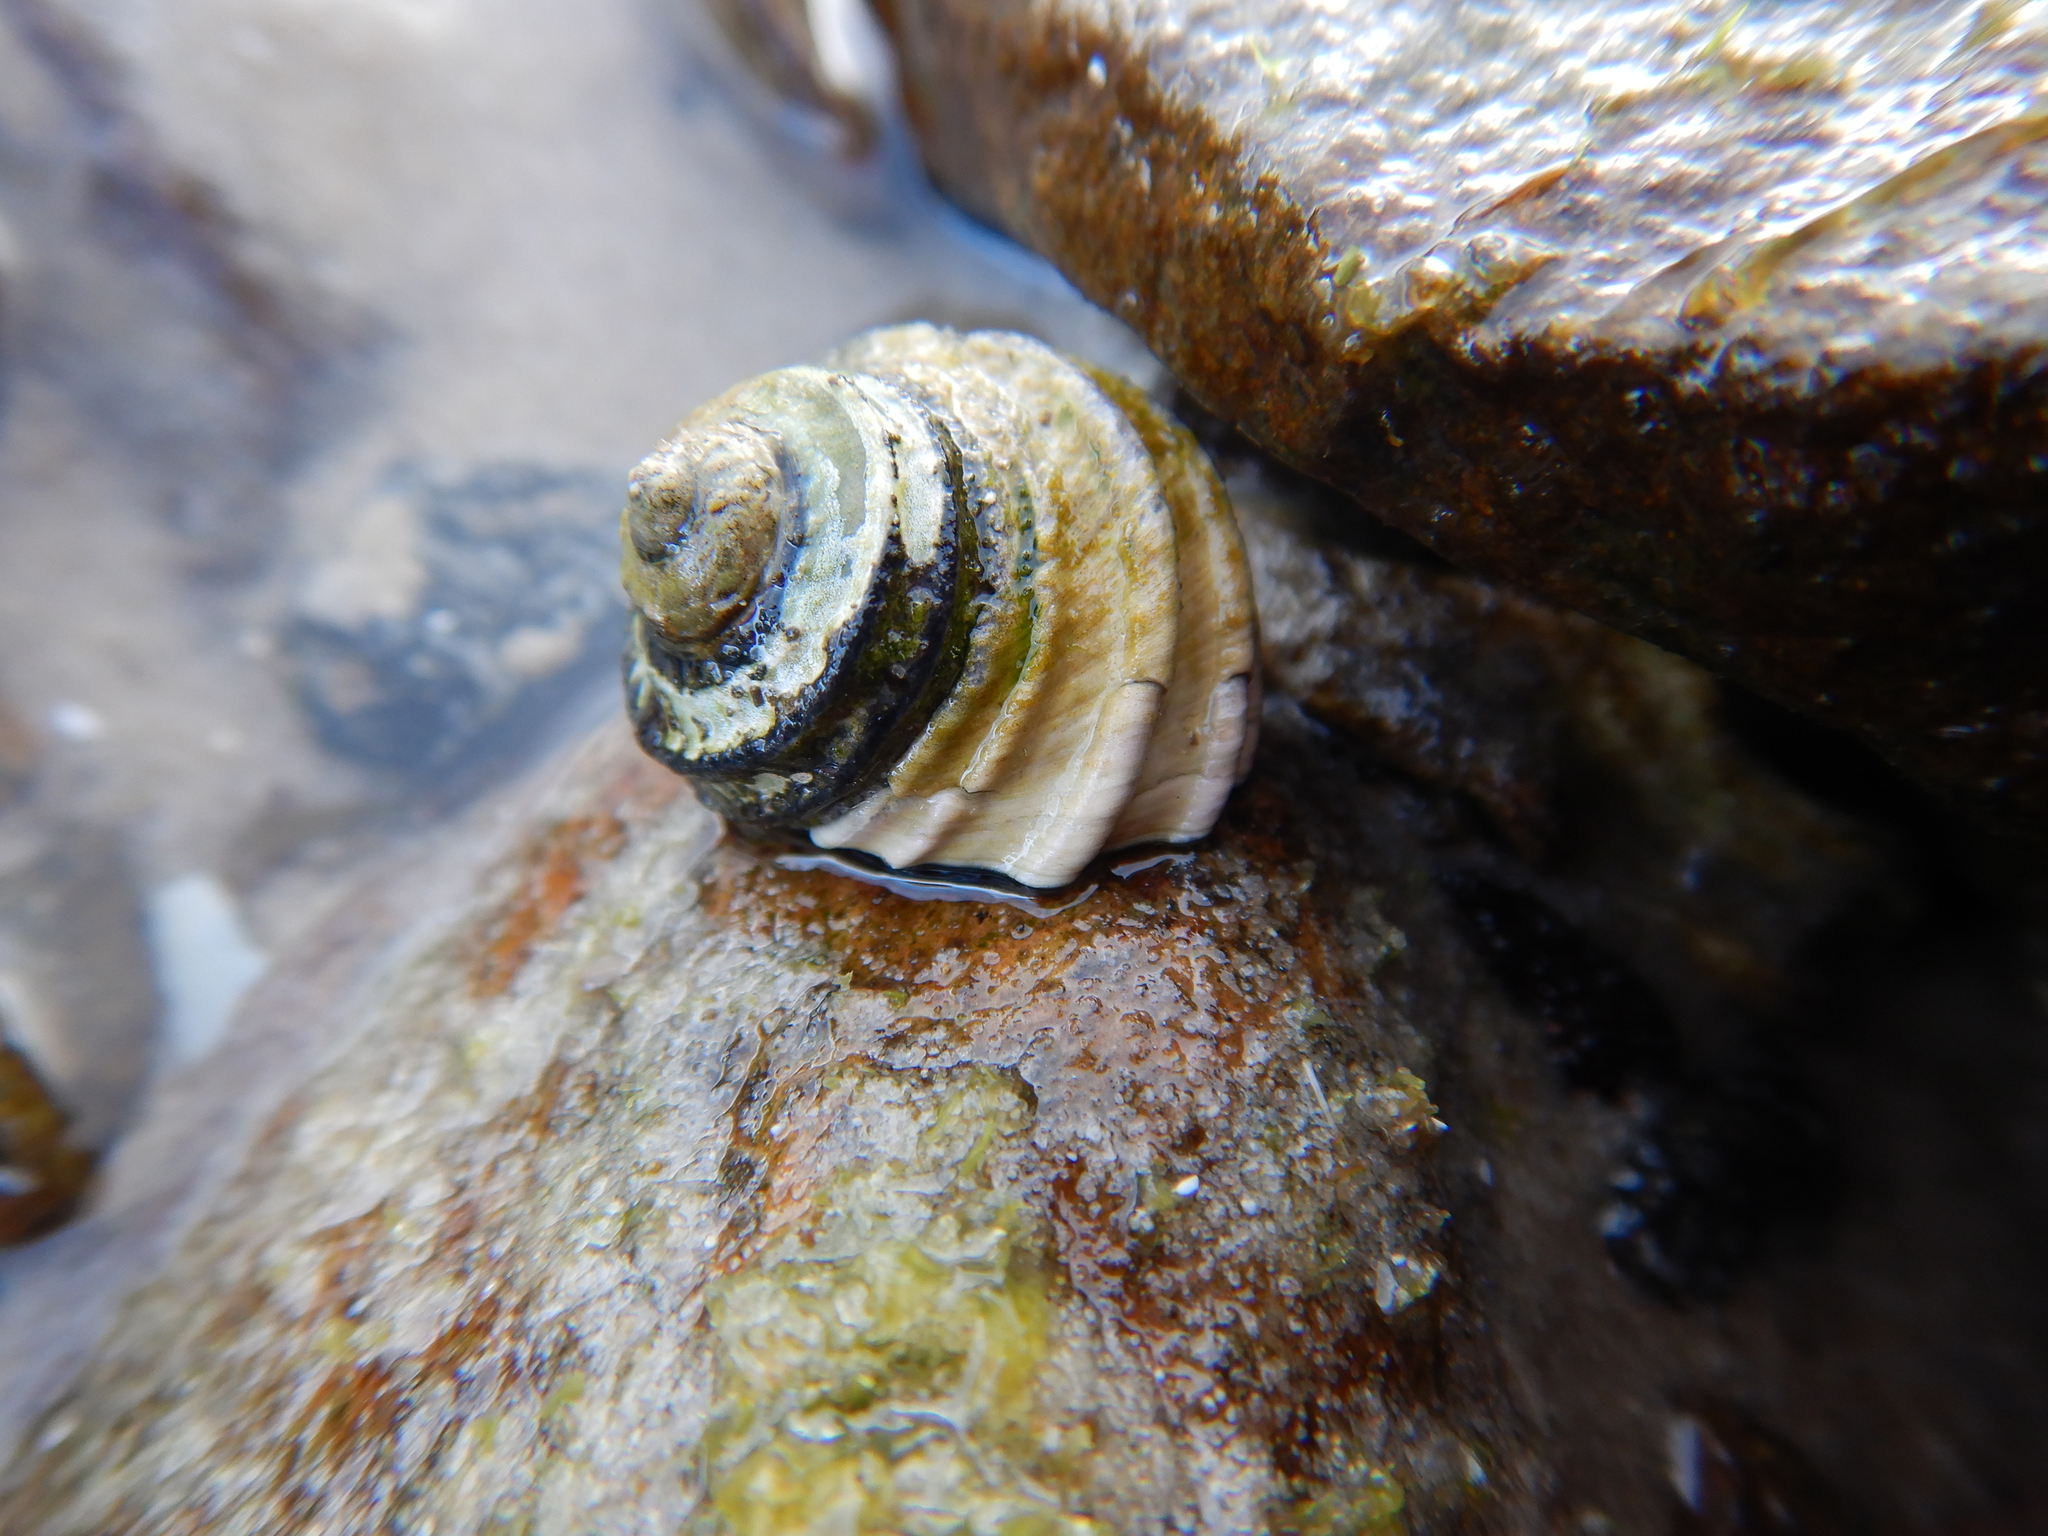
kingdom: Animalia
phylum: Mollusca
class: Gastropoda
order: Trochida
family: Trochidae
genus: Austrocochlea
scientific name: Austrocochlea constricta
